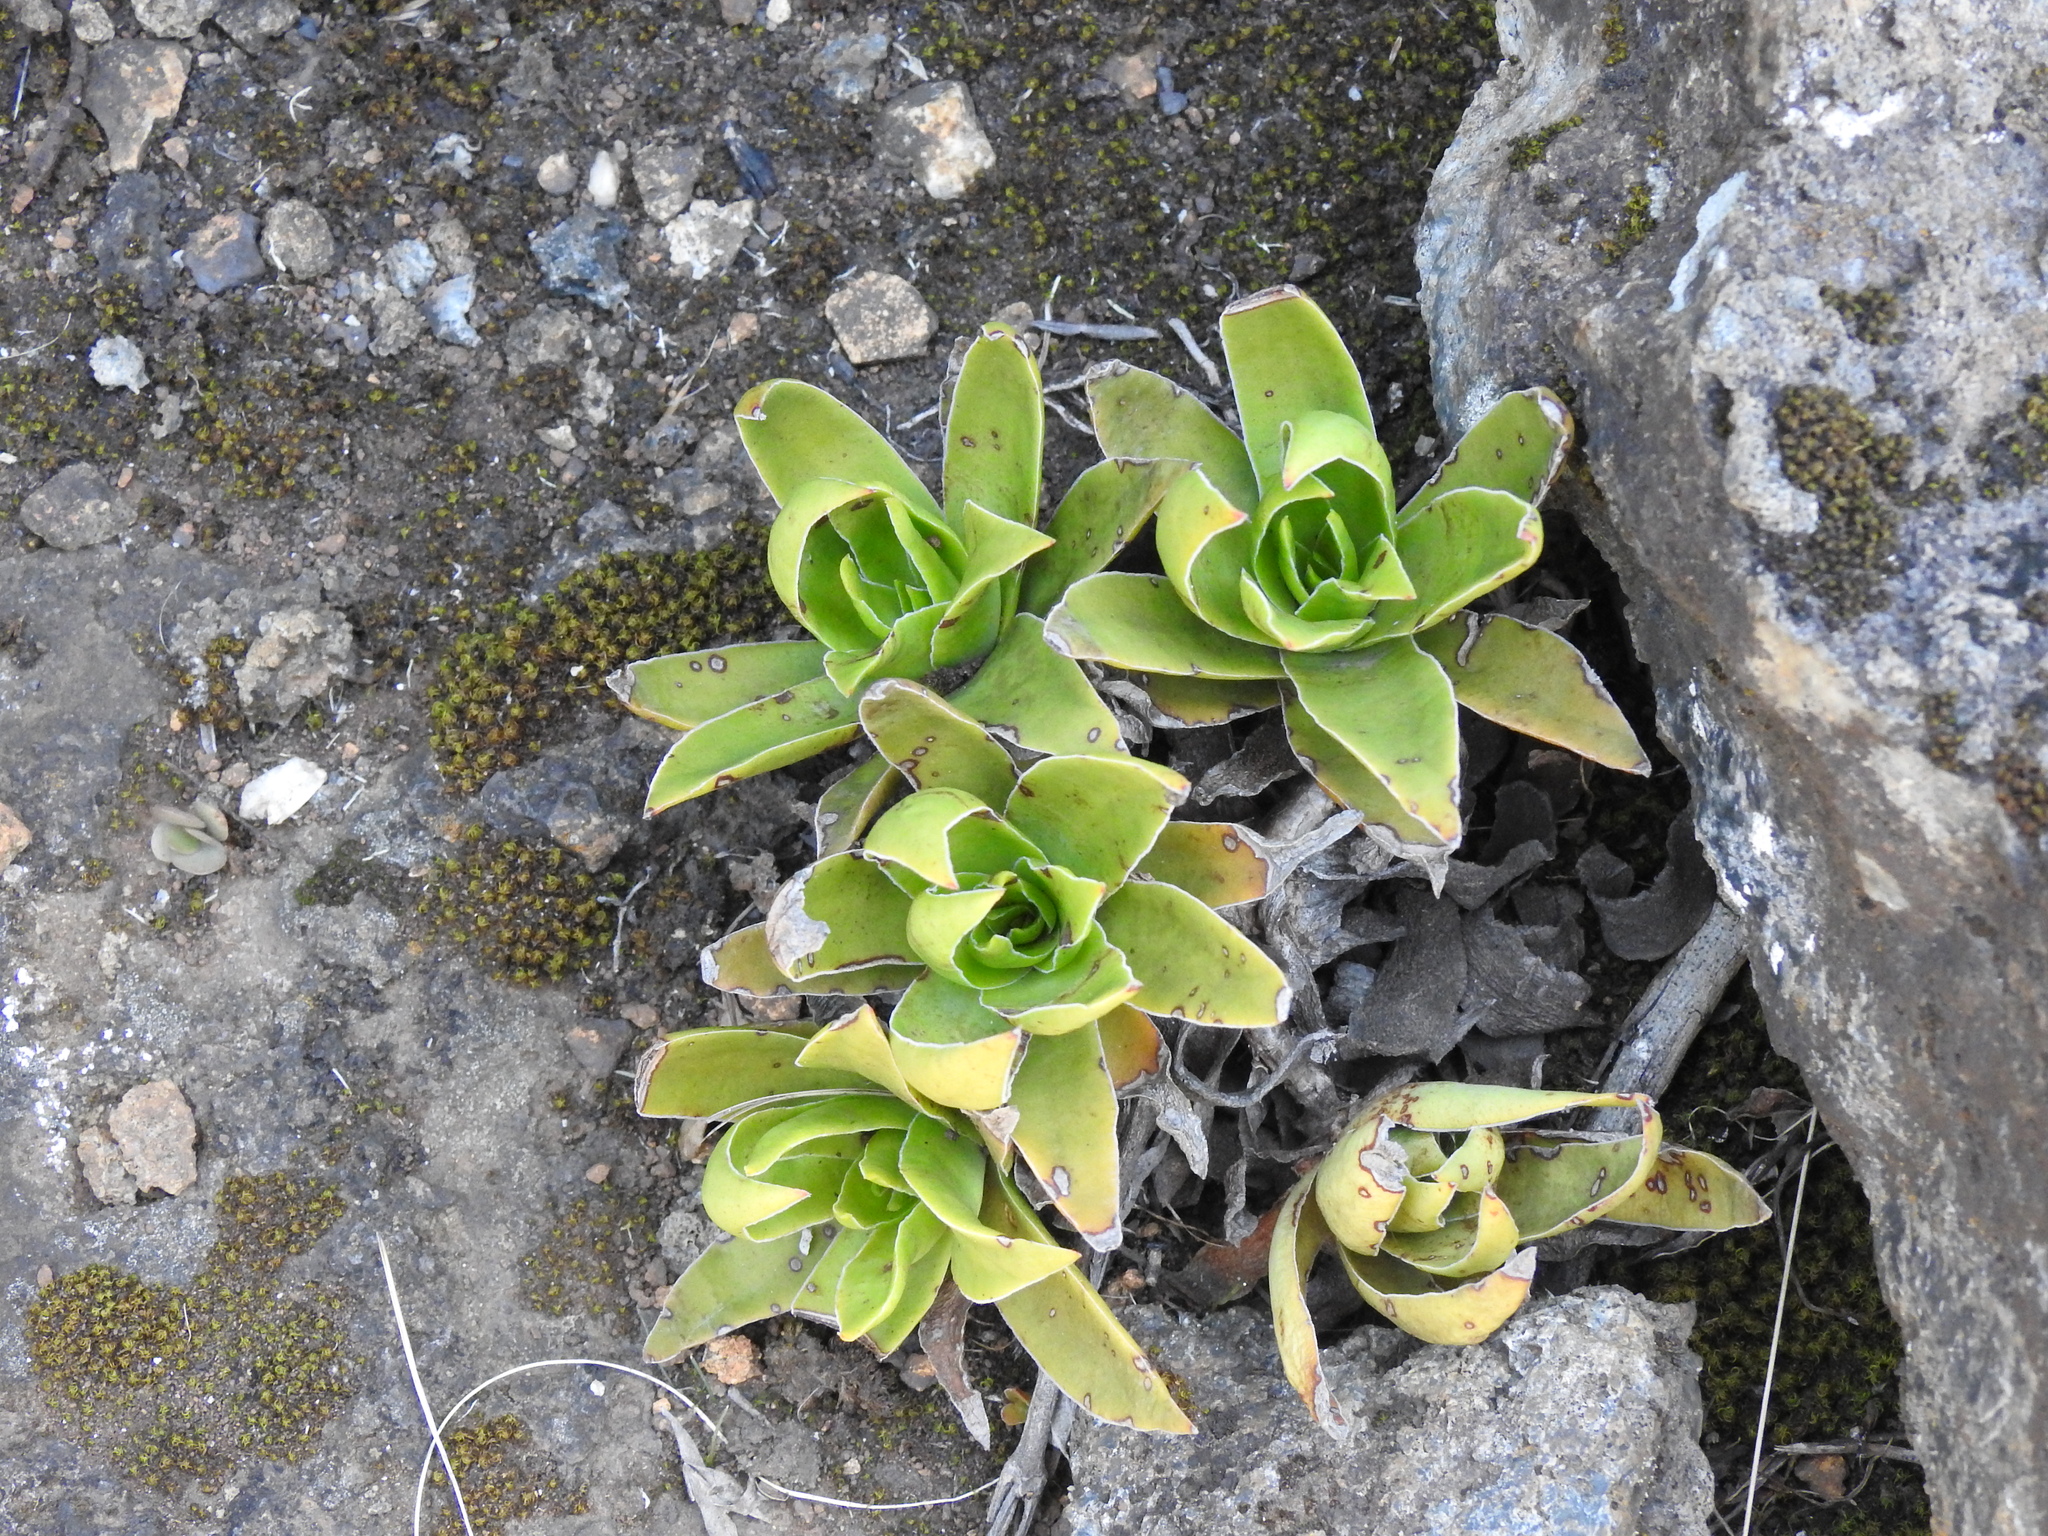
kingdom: Plantae
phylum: Tracheophyta
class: Magnoliopsida
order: Saxifragales
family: Crassulaceae
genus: Crassula
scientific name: Crassula alba
